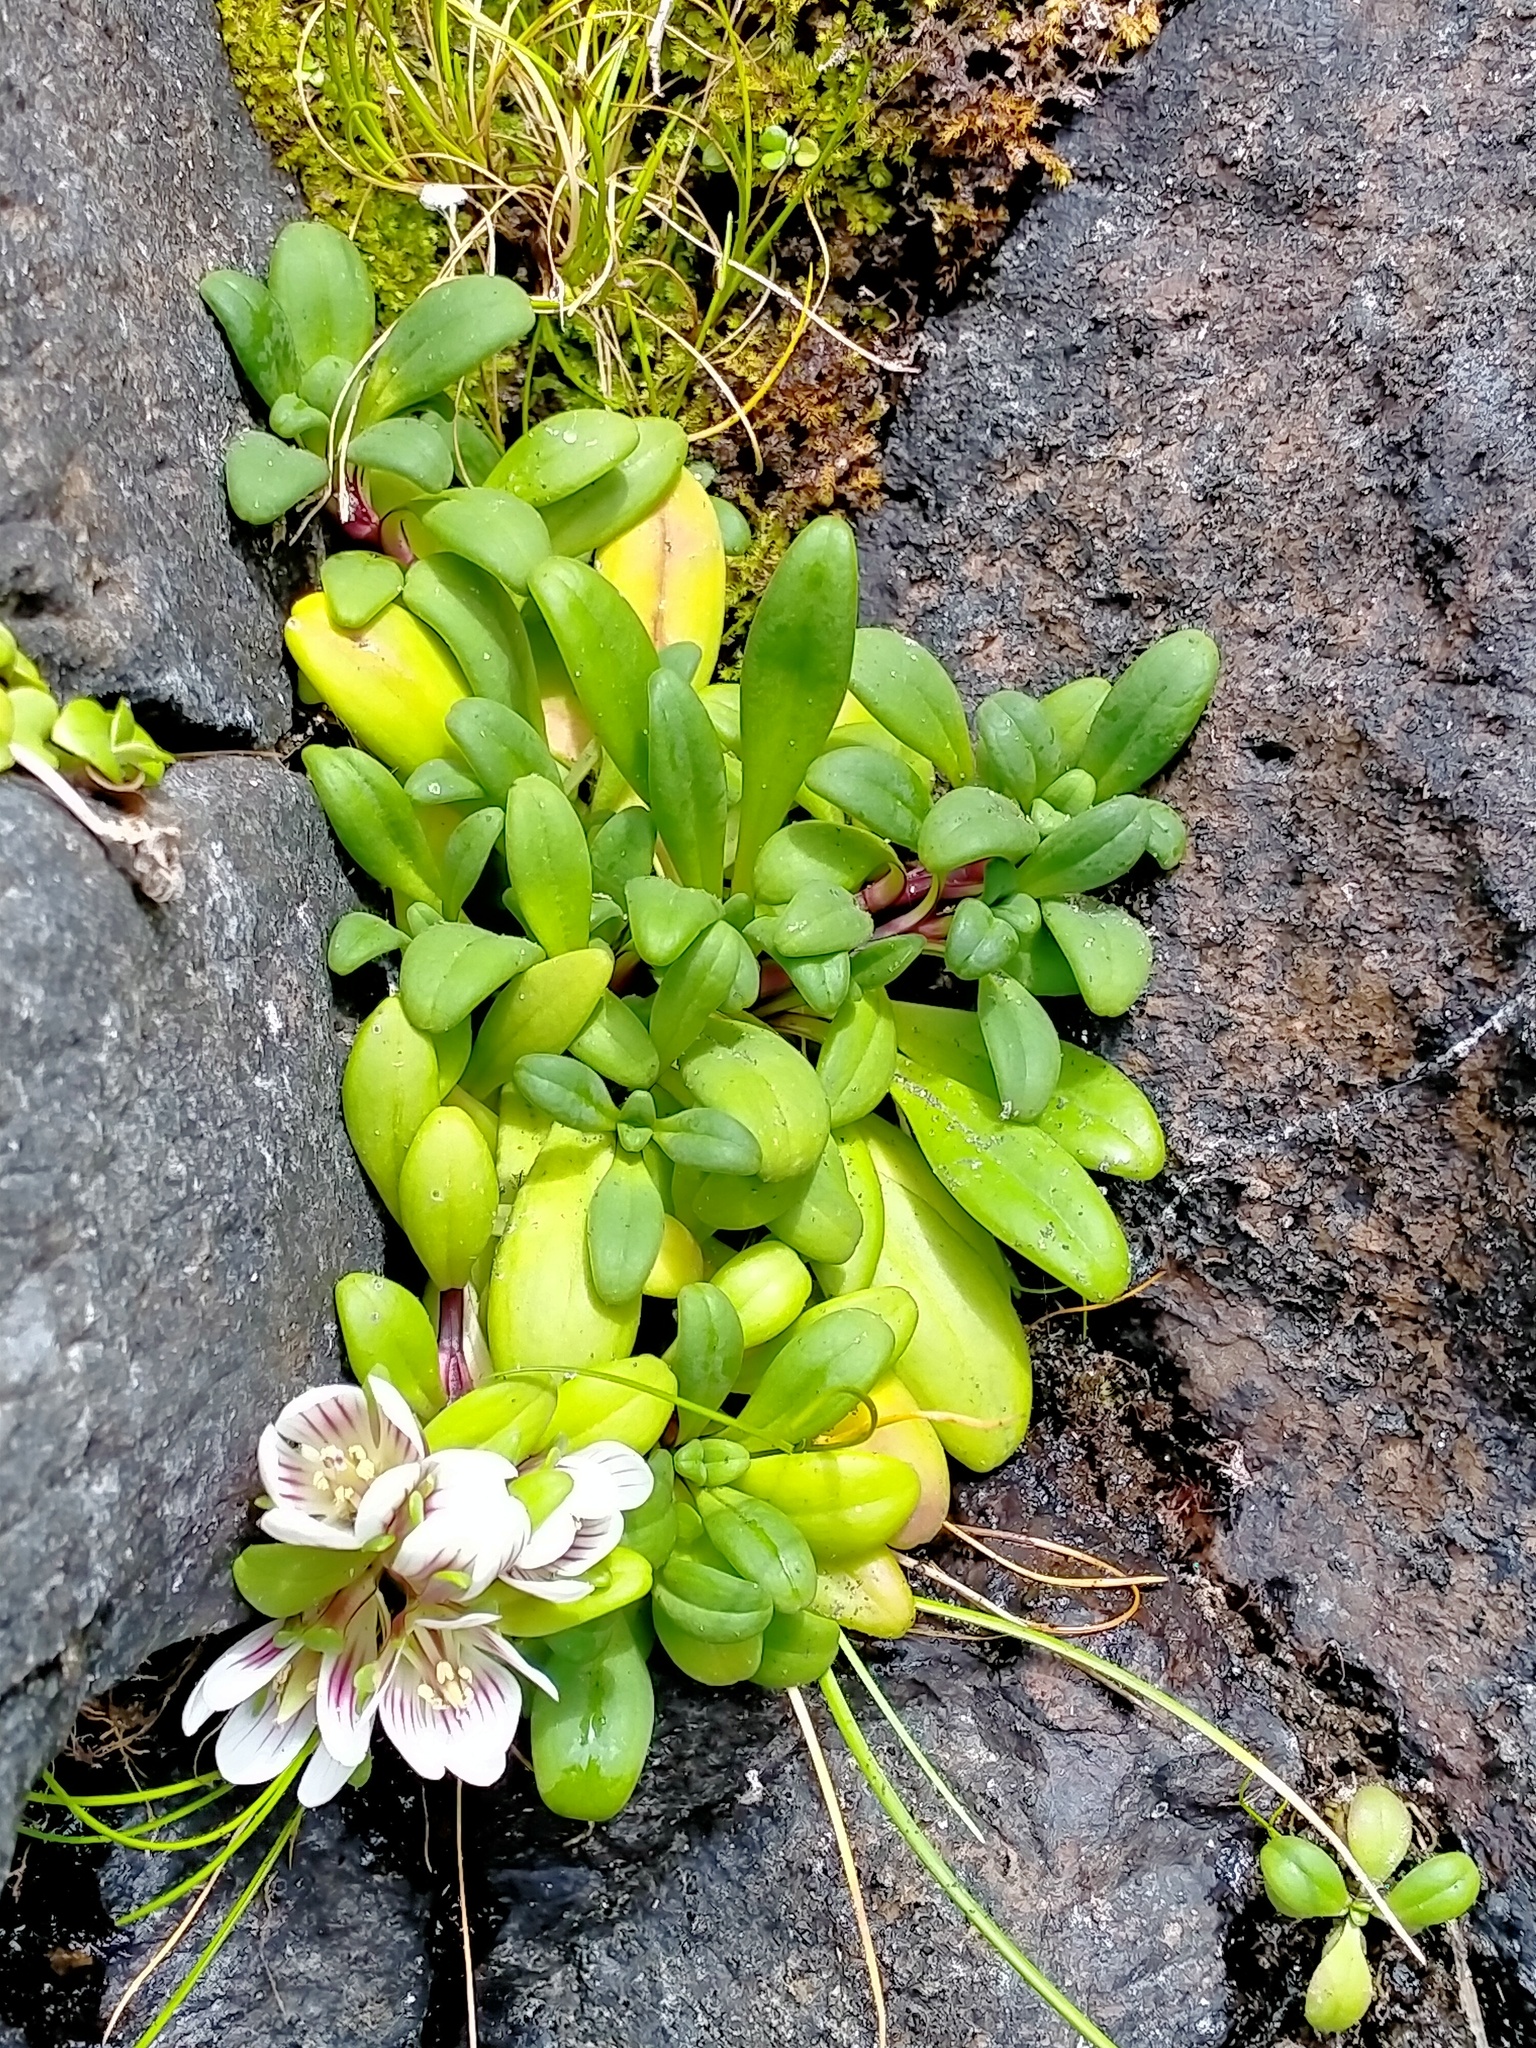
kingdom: Plantae
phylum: Tracheophyta
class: Magnoliopsida
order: Gentianales
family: Gentianaceae
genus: Gentianella
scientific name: Gentianella cerina
